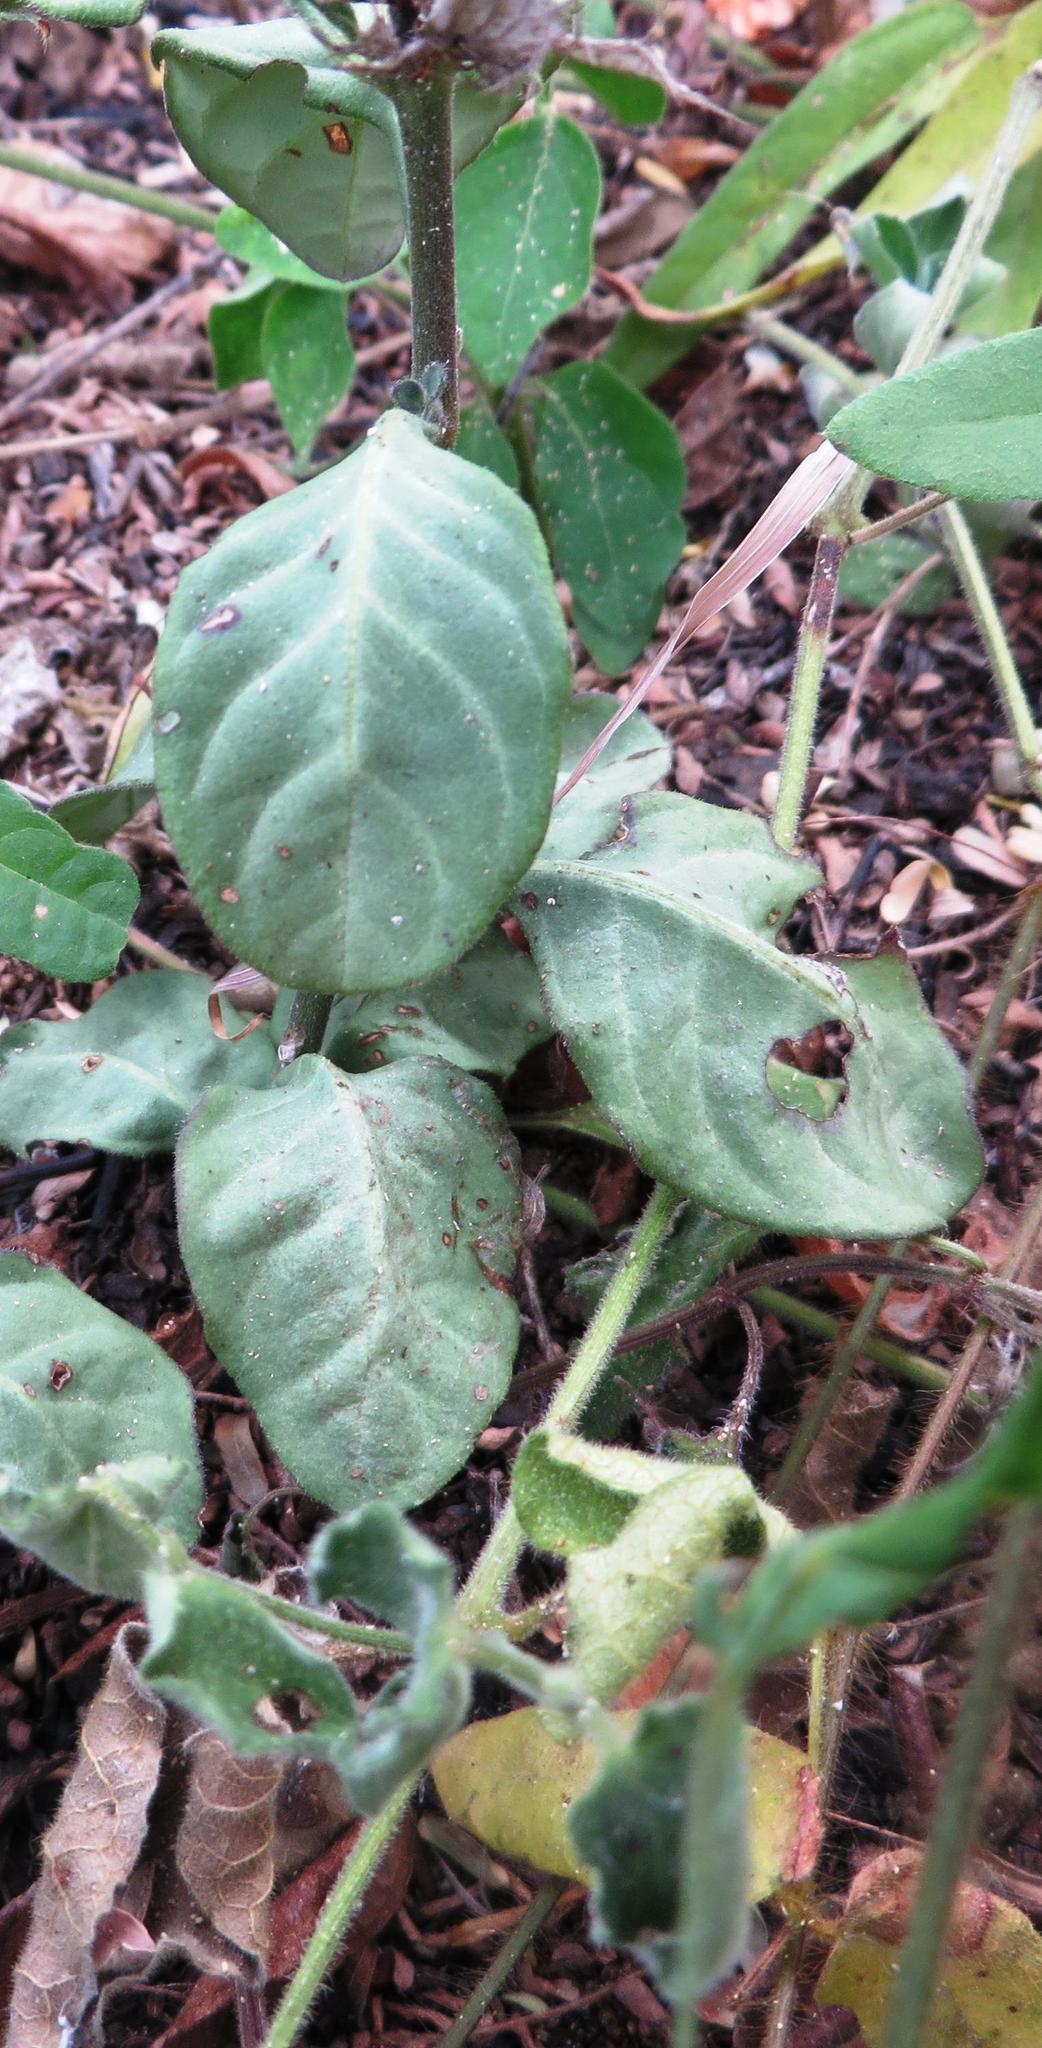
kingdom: Plantae
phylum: Tracheophyta
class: Magnoliopsida
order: Lamiales
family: Acanthaceae
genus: Crossandra
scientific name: Crossandra zuluensis
